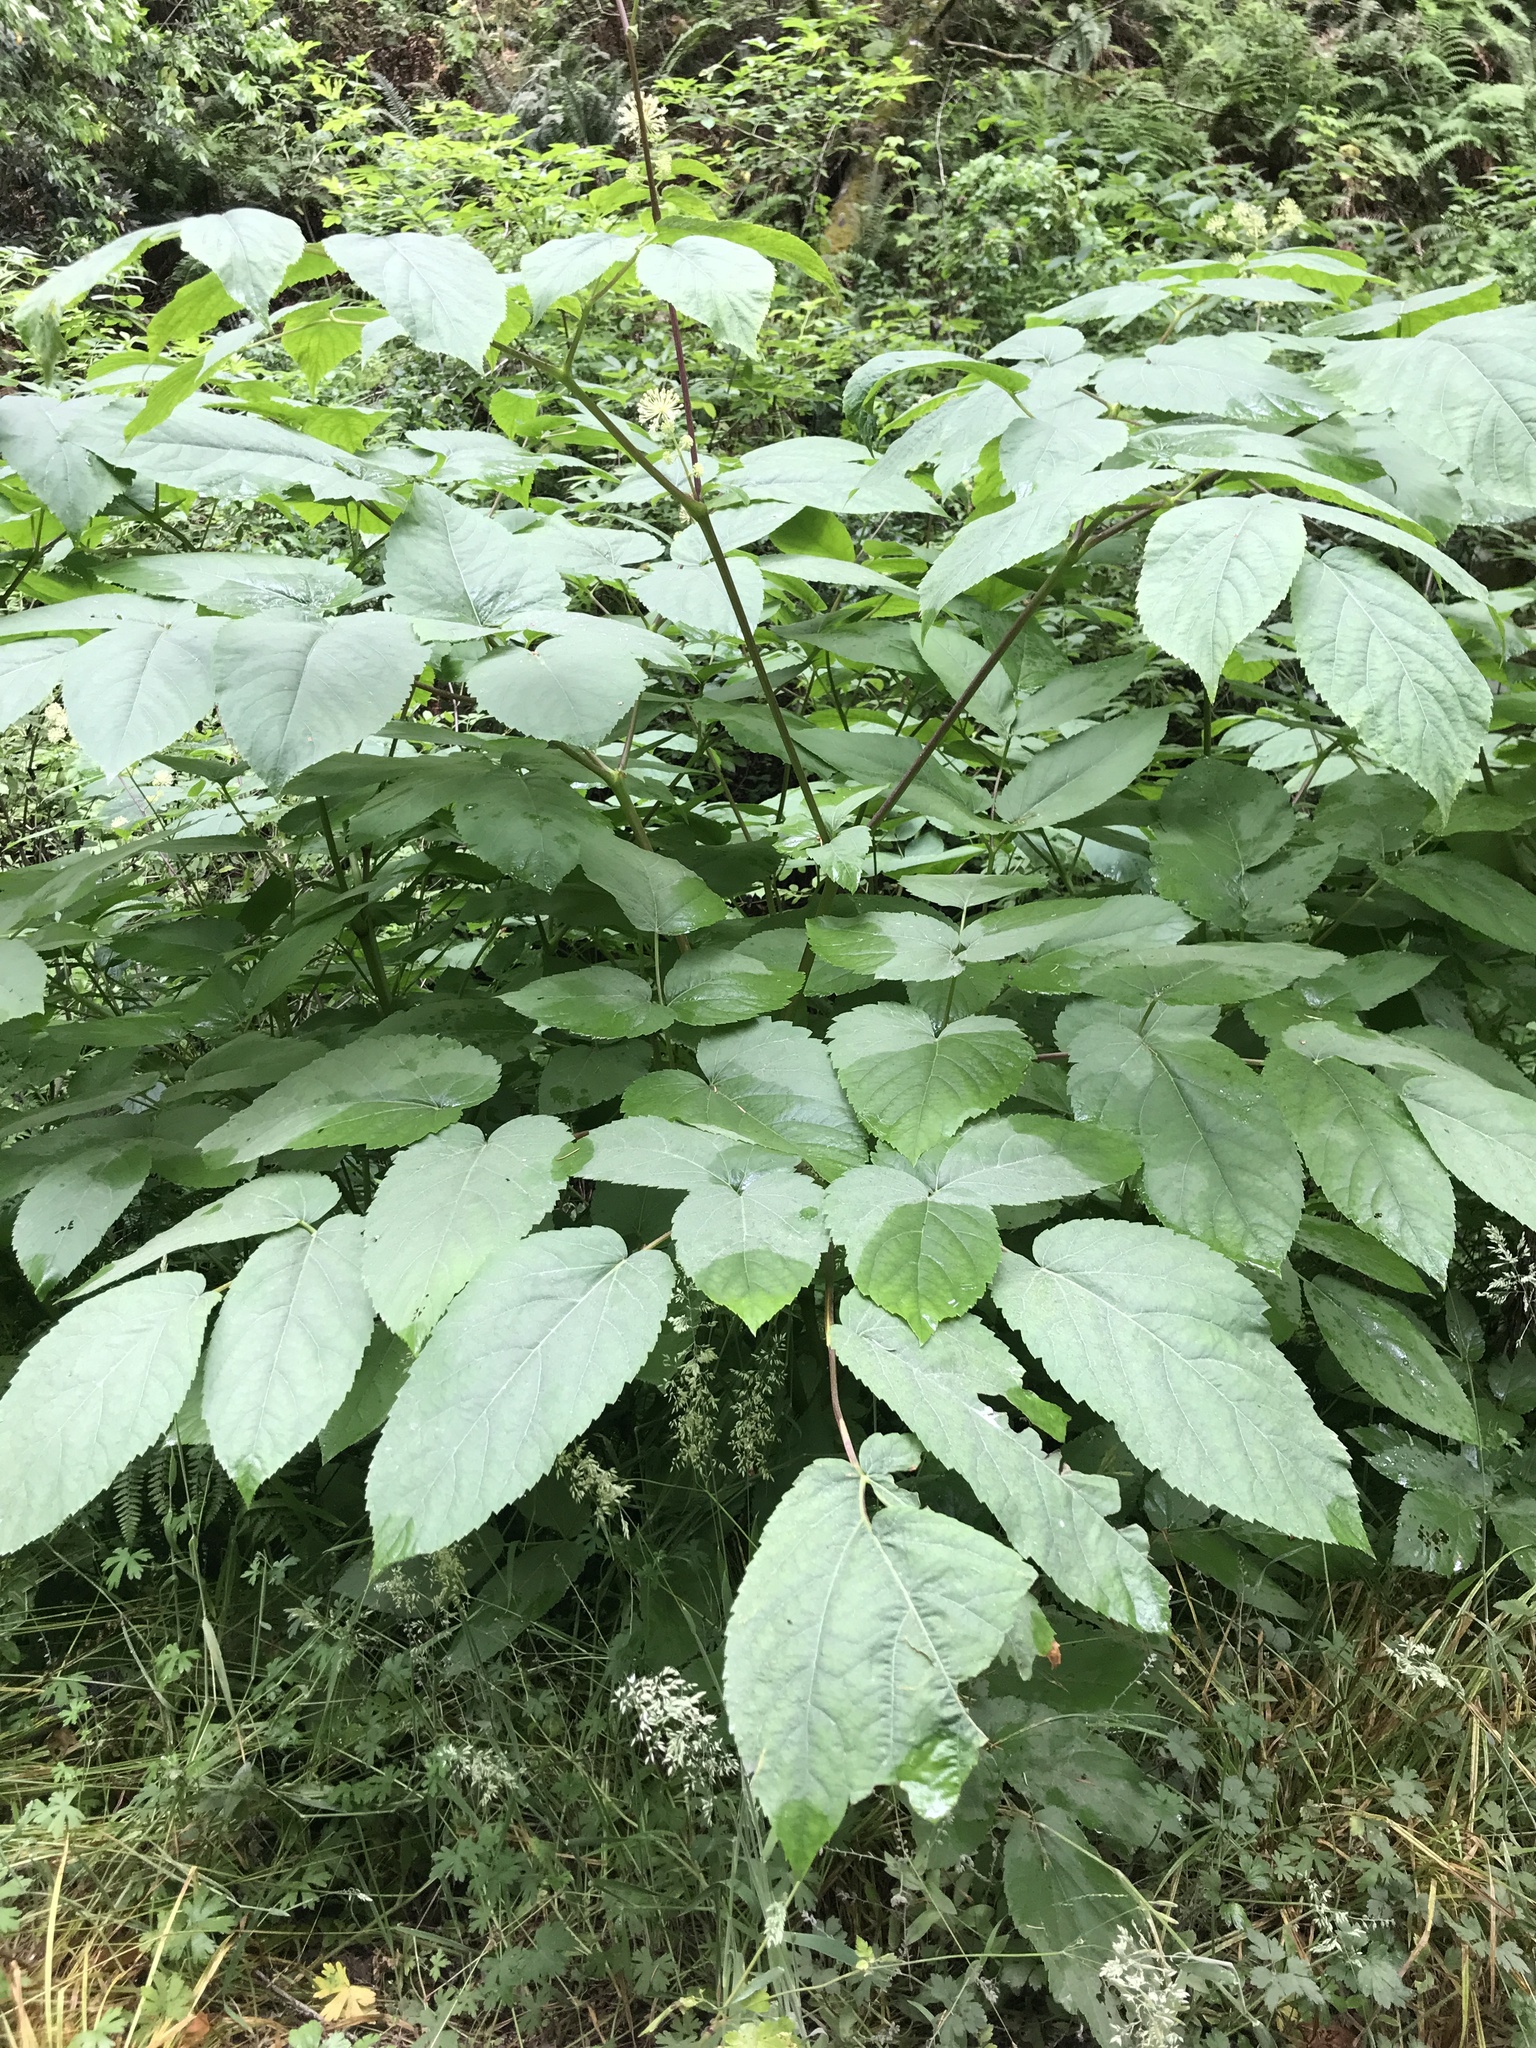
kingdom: Plantae
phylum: Tracheophyta
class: Magnoliopsida
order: Apiales
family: Araliaceae
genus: Aralia
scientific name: Aralia californica
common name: California-ginseng
